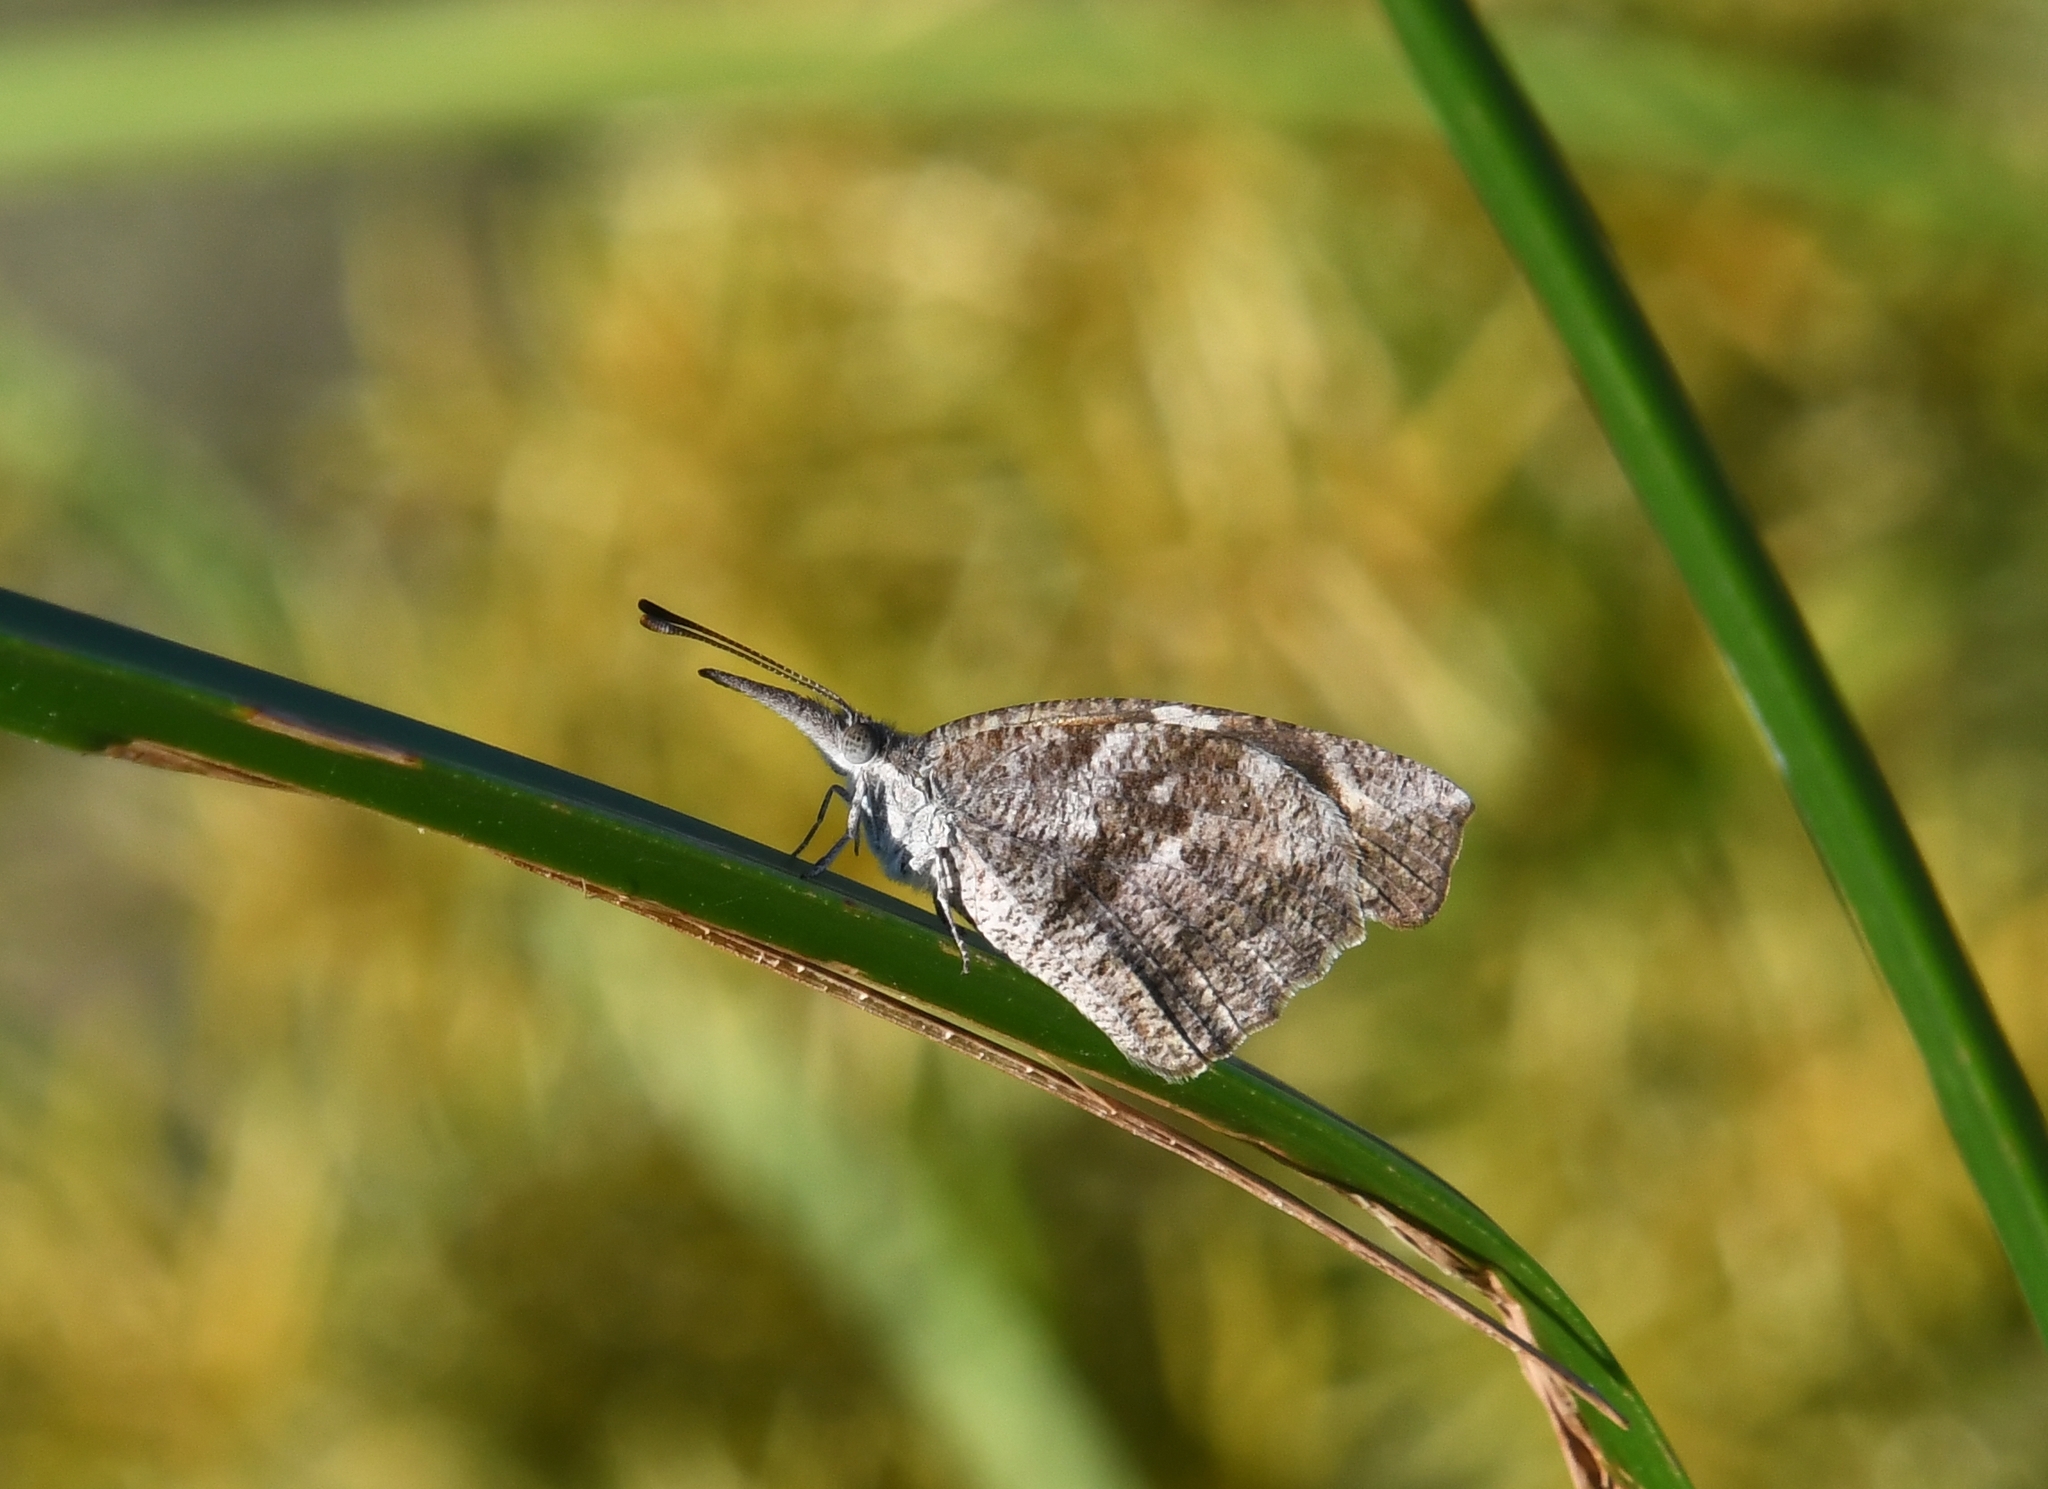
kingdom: Animalia
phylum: Arthropoda
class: Insecta
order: Lepidoptera
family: Nymphalidae
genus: Libytheana
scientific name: Libytheana carinenta
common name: American snout
